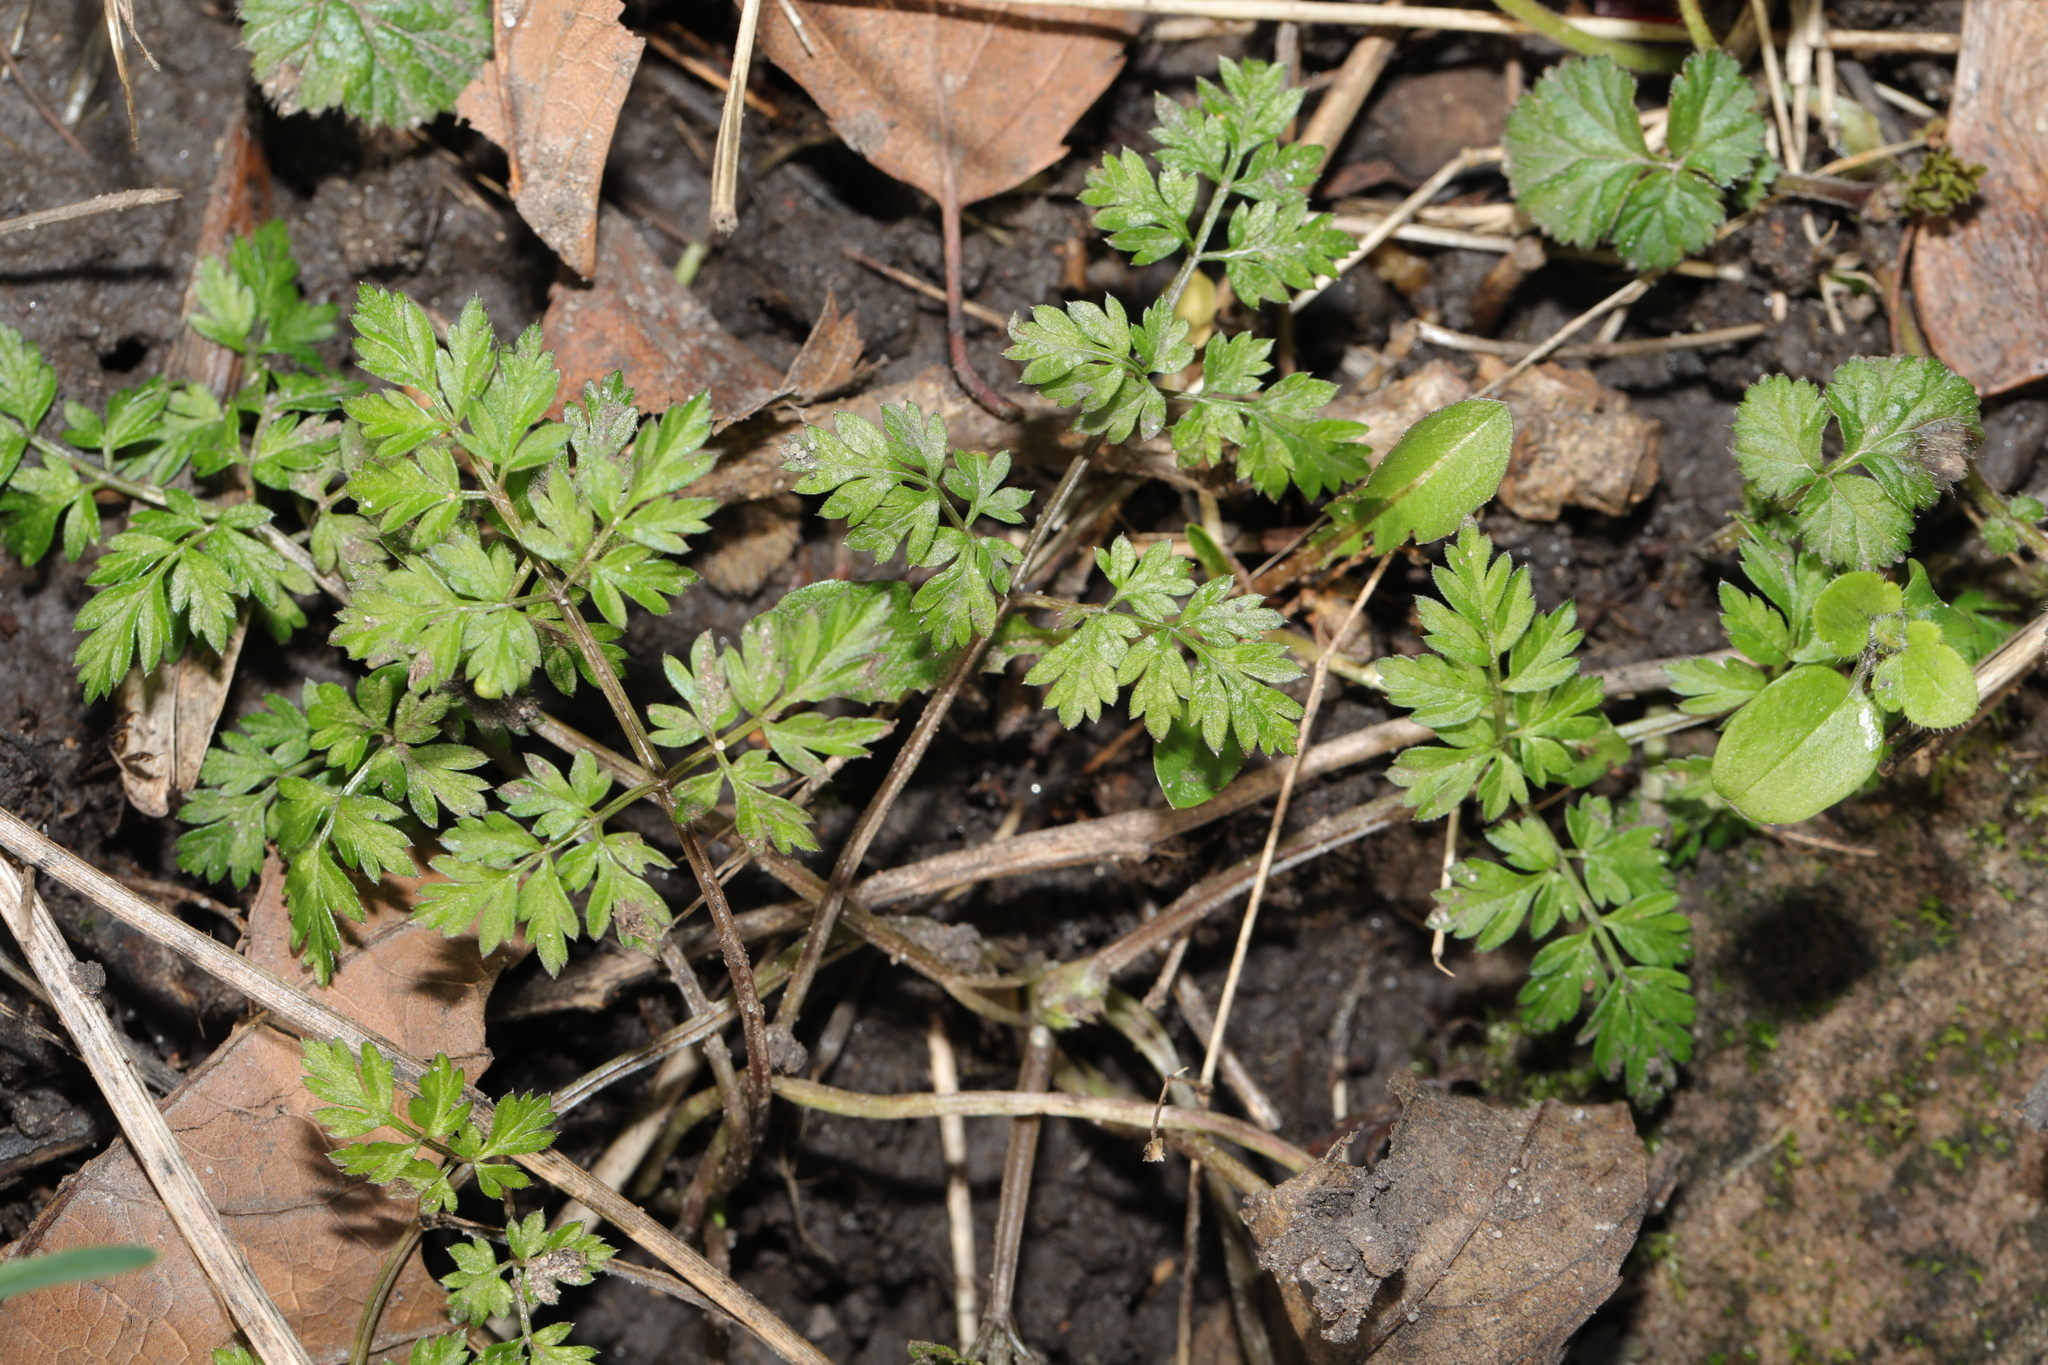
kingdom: Plantae
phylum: Tracheophyta
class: Magnoliopsida
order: Apiales
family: Apiaceae
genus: Anthriscus
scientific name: Anthriscus sylvestris
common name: Cow parsley
